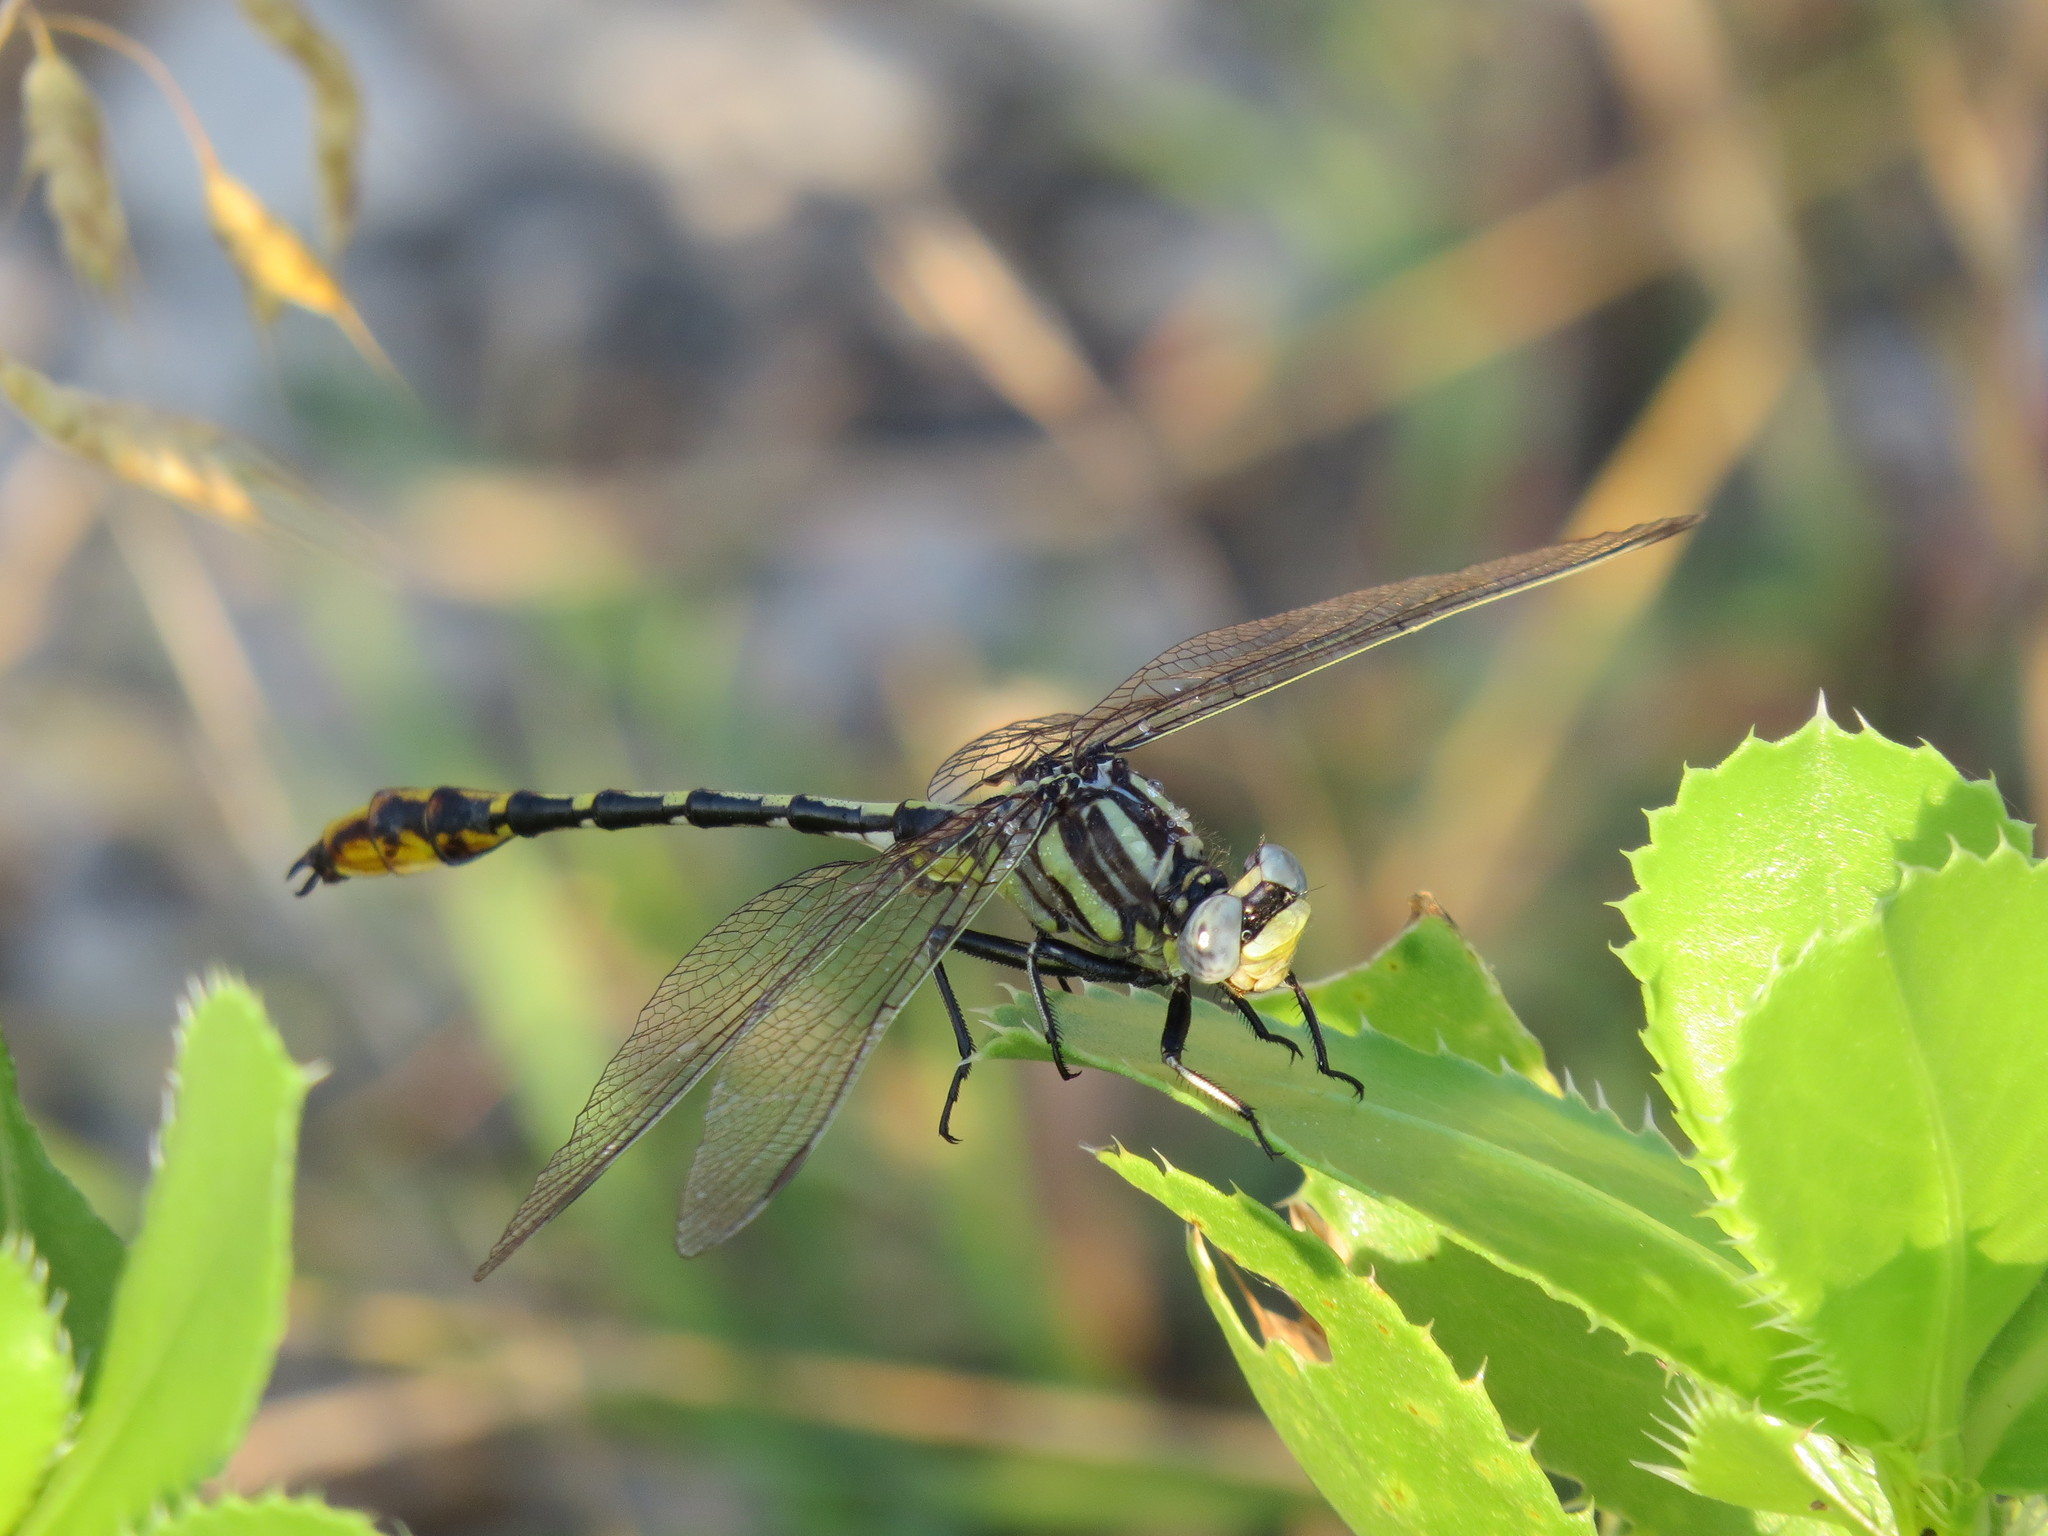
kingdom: Animalia
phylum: Arthropoda
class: Insecta
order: Odonata
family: Gomphidae
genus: Phanogomphus
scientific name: Phanogomphus militaris
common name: Sulphur-tipped clubtail
